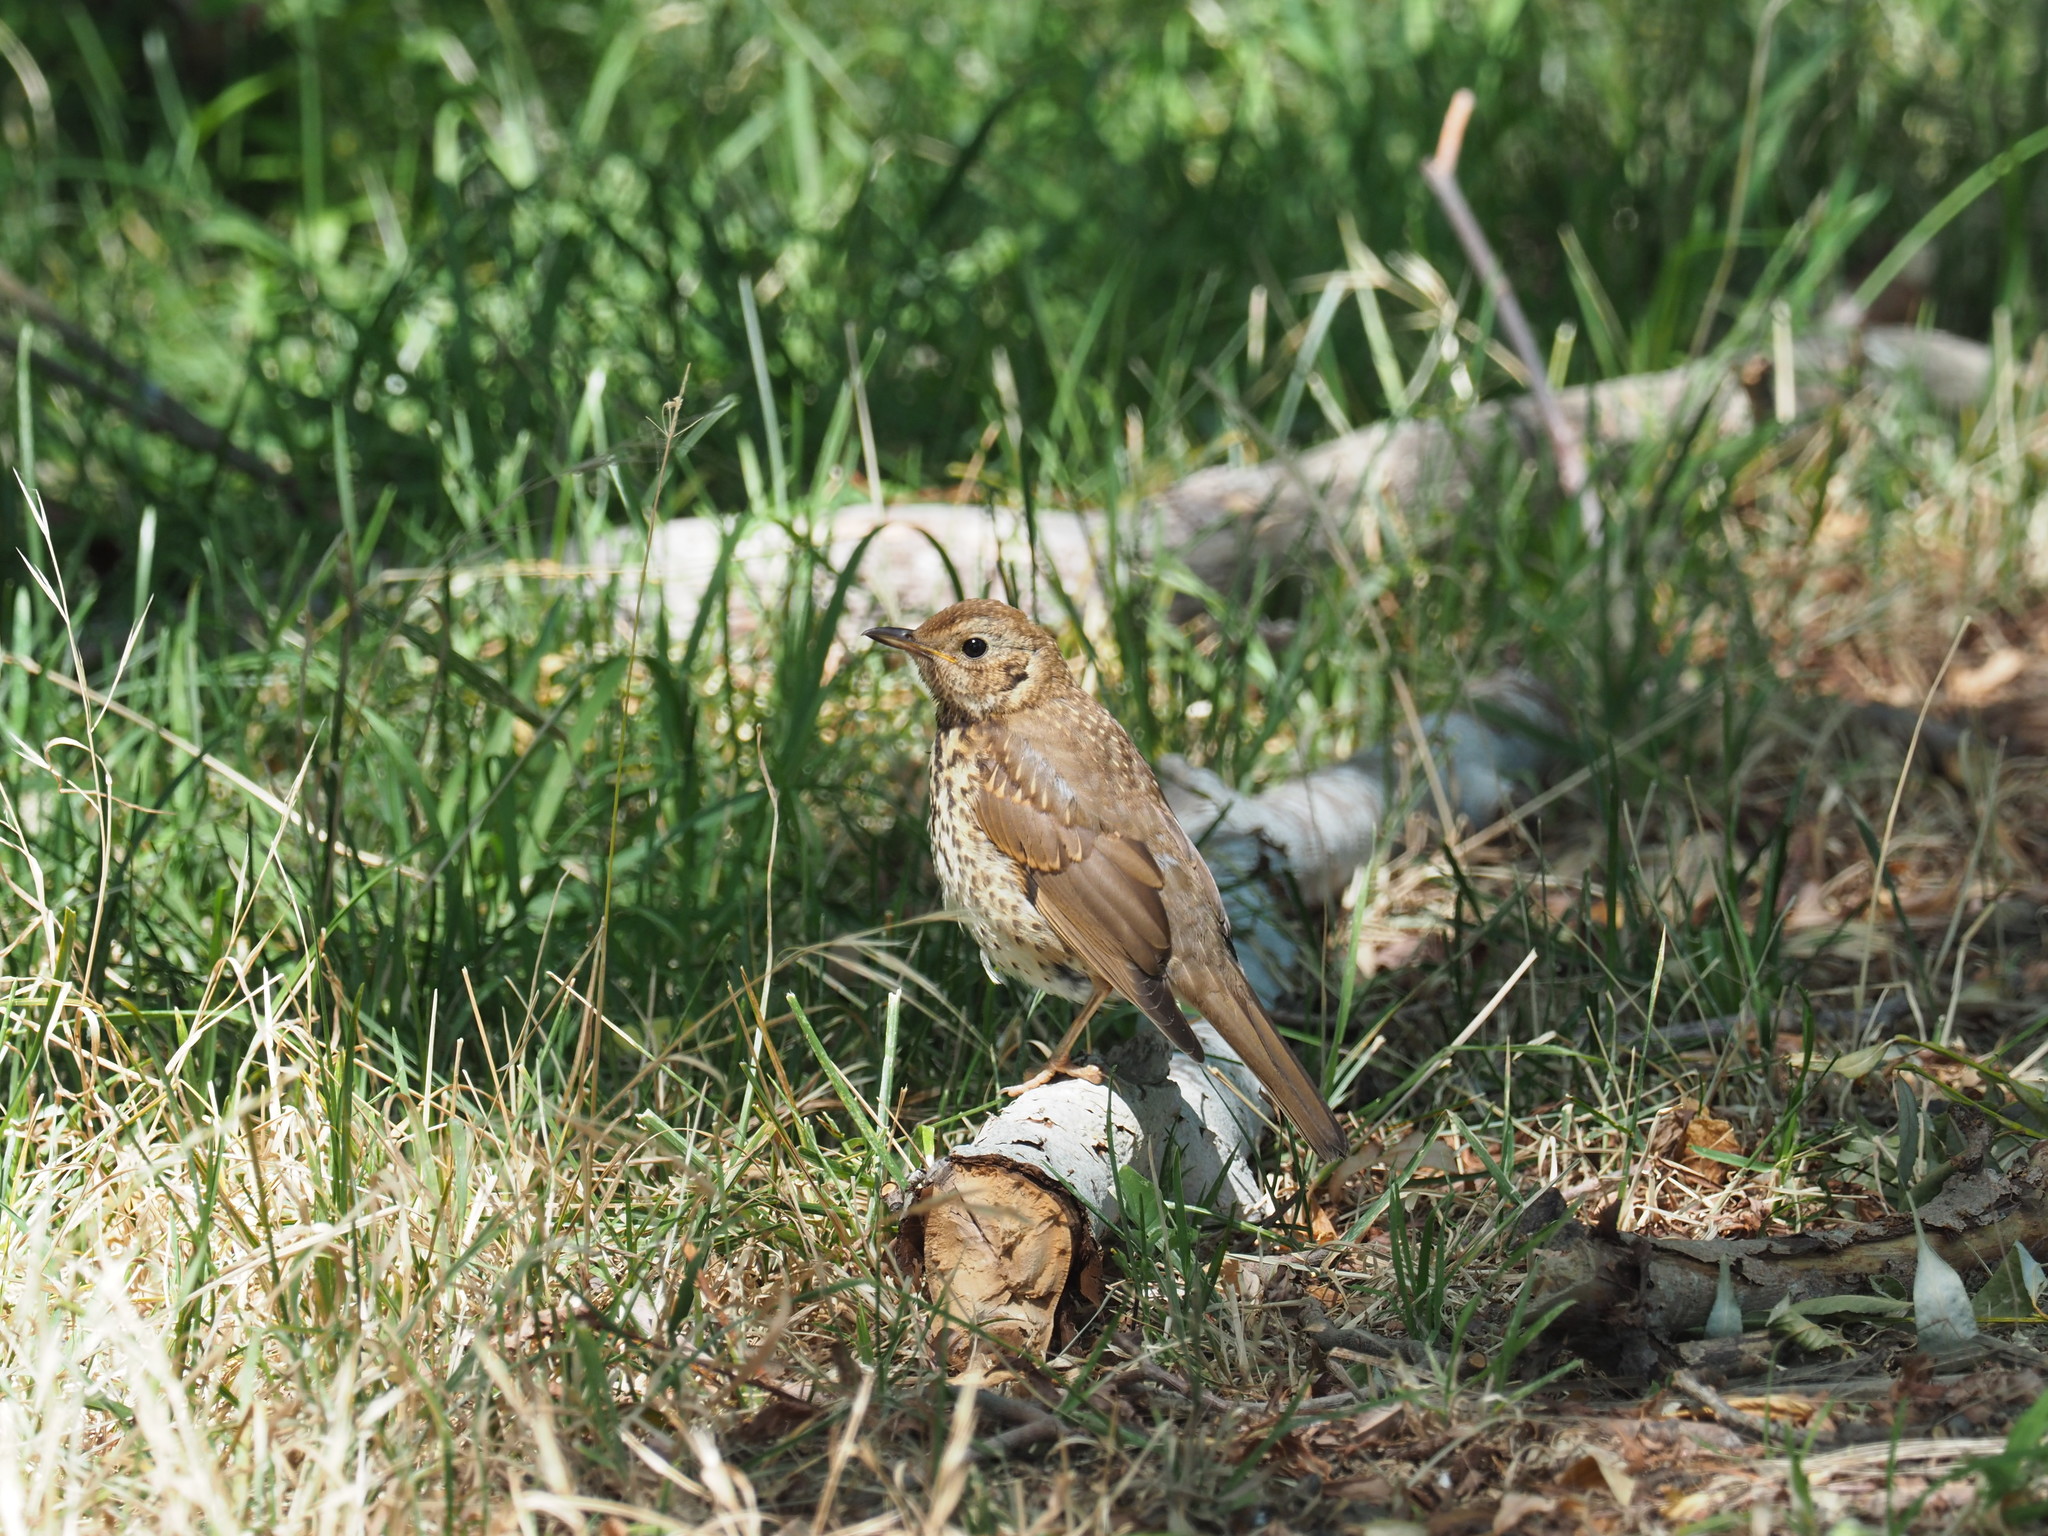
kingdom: Animalia
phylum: Chordata
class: Aves
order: Passeriformes
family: Turdidae
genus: Turdus
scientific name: Turdus philomelos
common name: Song thrush
